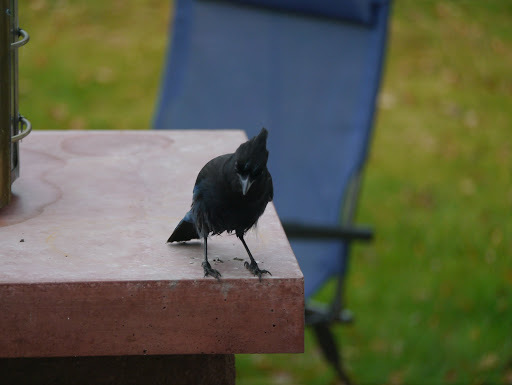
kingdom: Animalia
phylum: Chordata
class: Aves
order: Passeriformes
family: Corvidae
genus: Cyanocitta
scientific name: Cyanocitta stelleri
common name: Steller's jay
